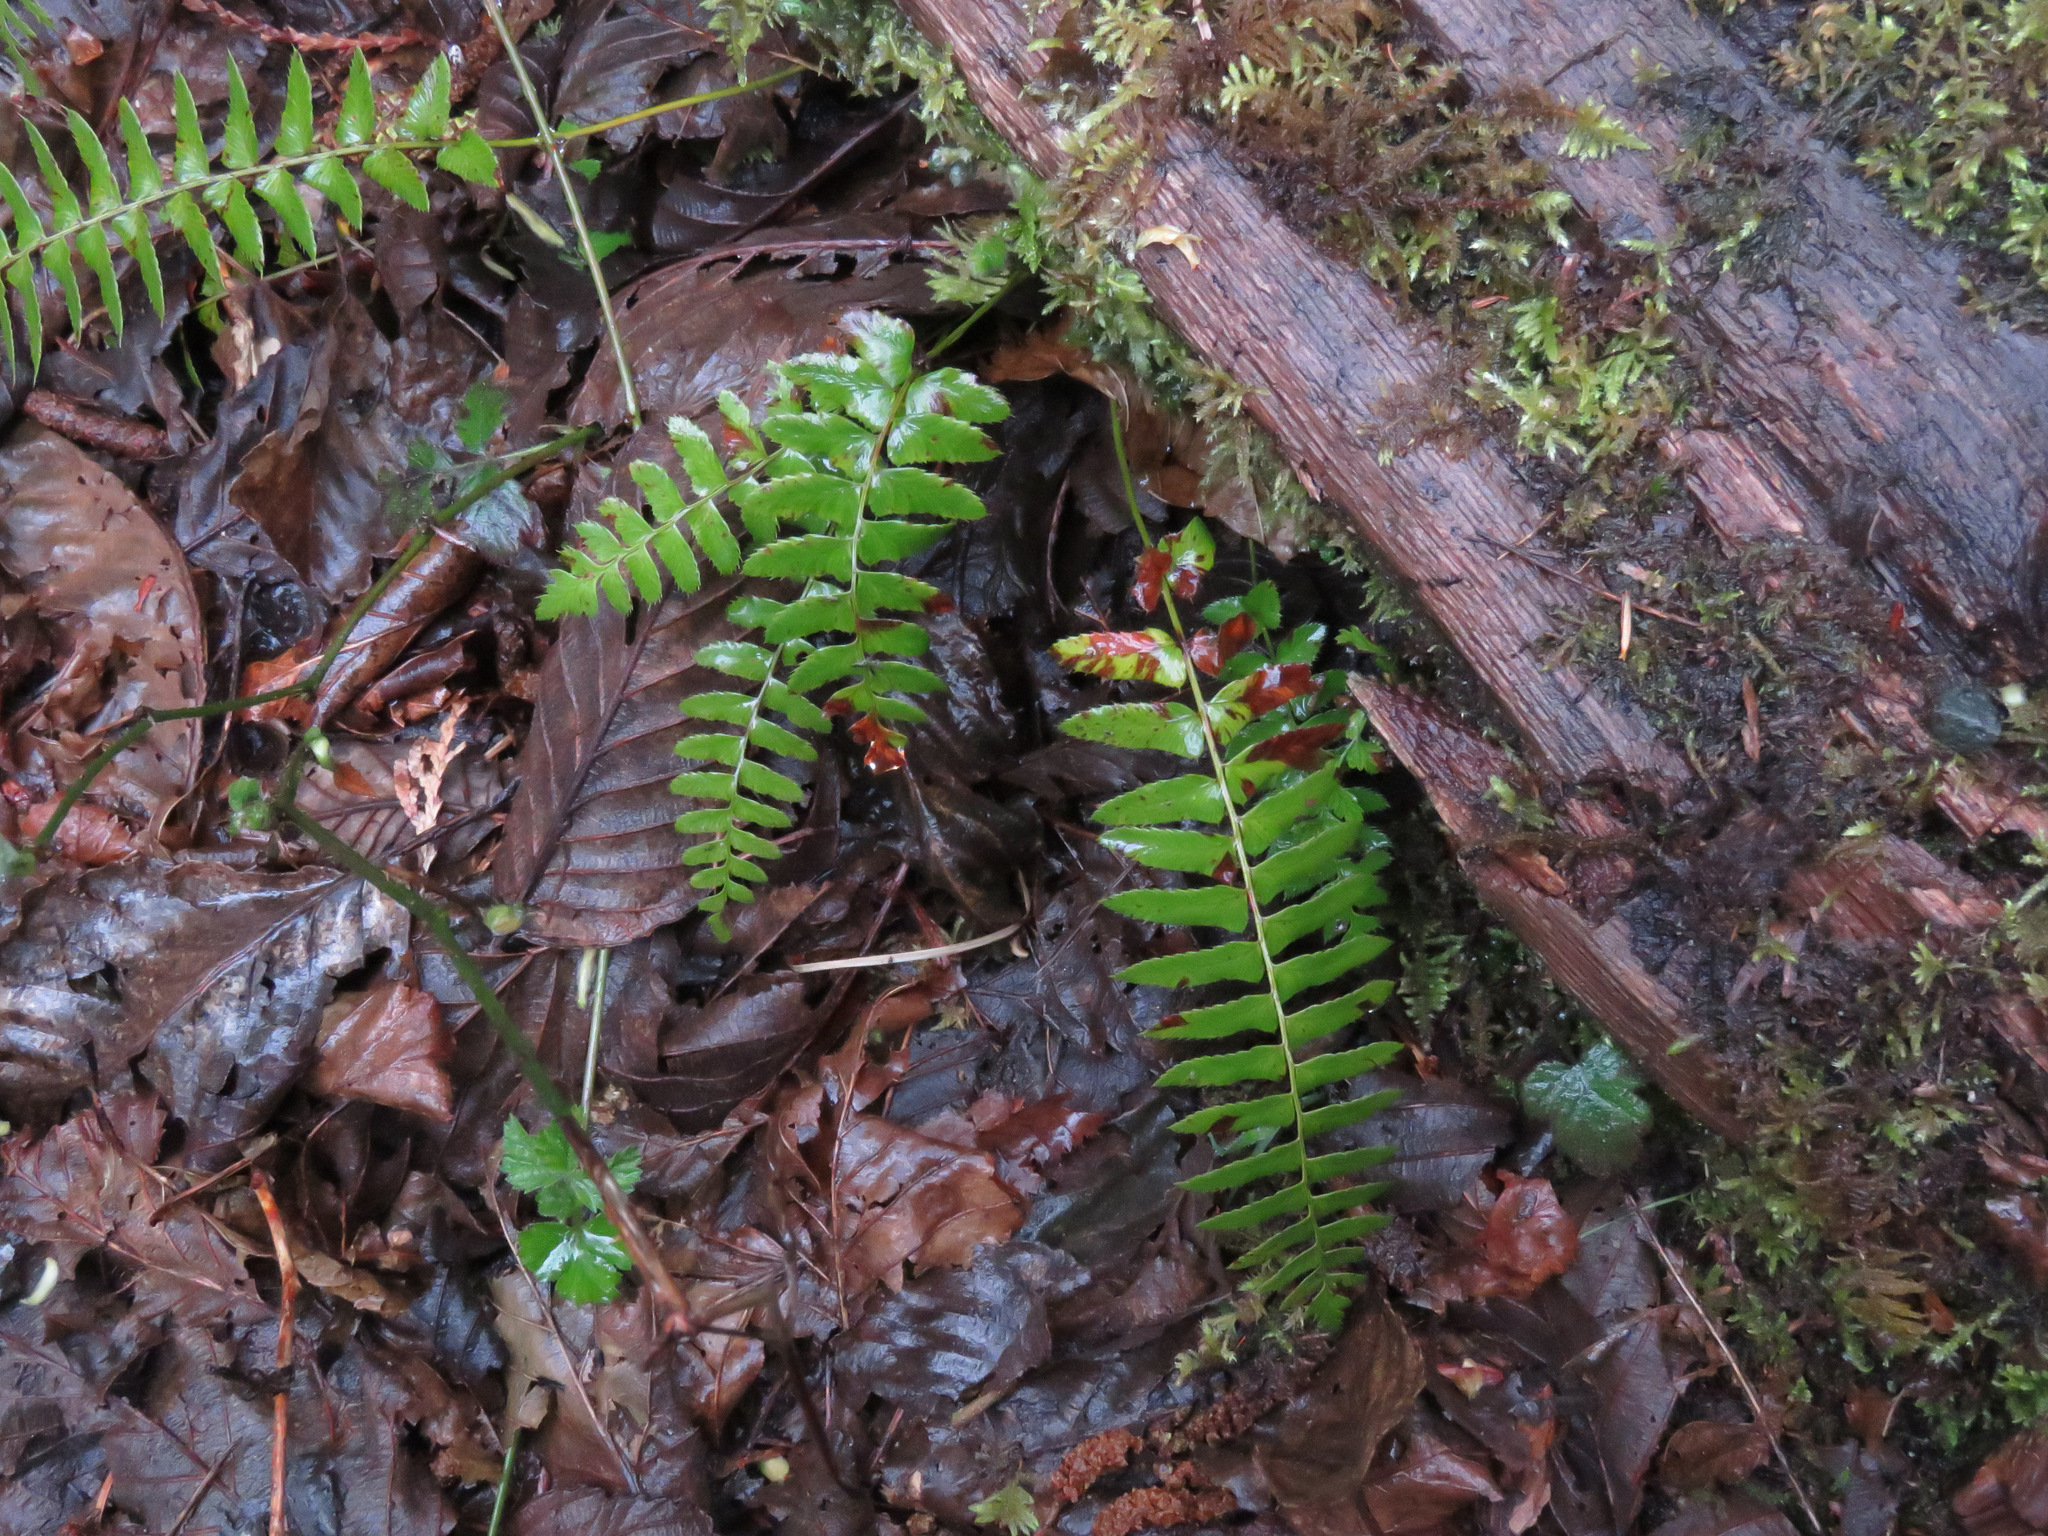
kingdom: Plantae
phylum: Tracheophyta
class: Polypodiopsida
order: Polypodiales
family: Dryopteridaceae
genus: Polystichum
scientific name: Polystichum munitum
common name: Western sword-fern
